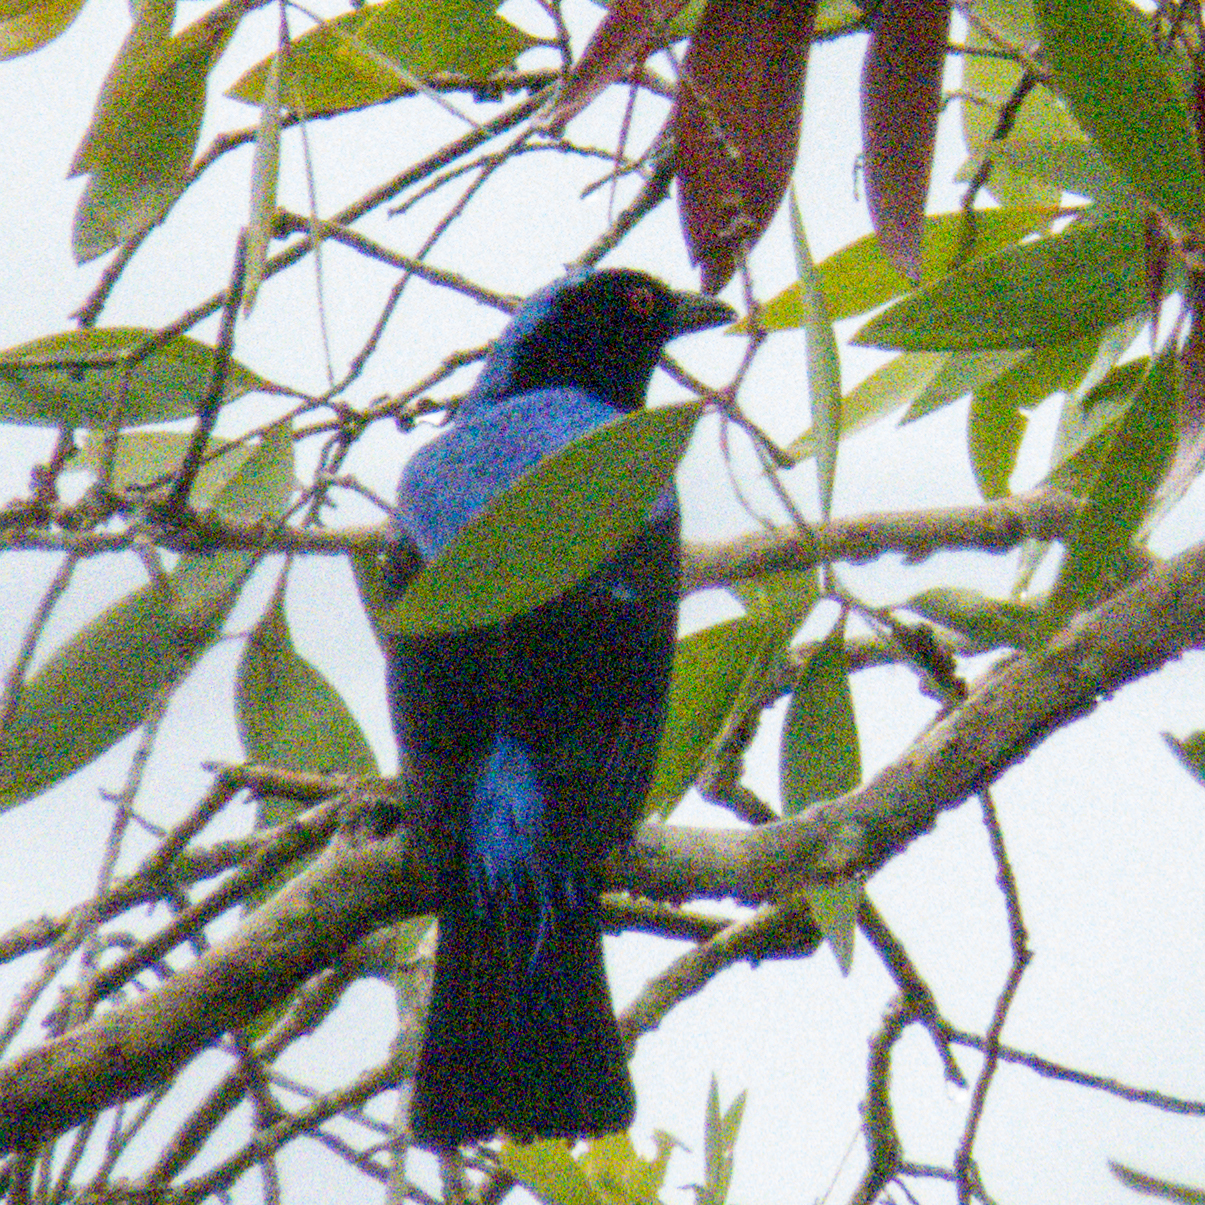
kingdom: Animalia
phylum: Chordata
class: Aves
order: Passeriformes
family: Irenidae
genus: Irena
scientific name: Irena puella
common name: Asian fairy-bluebird
